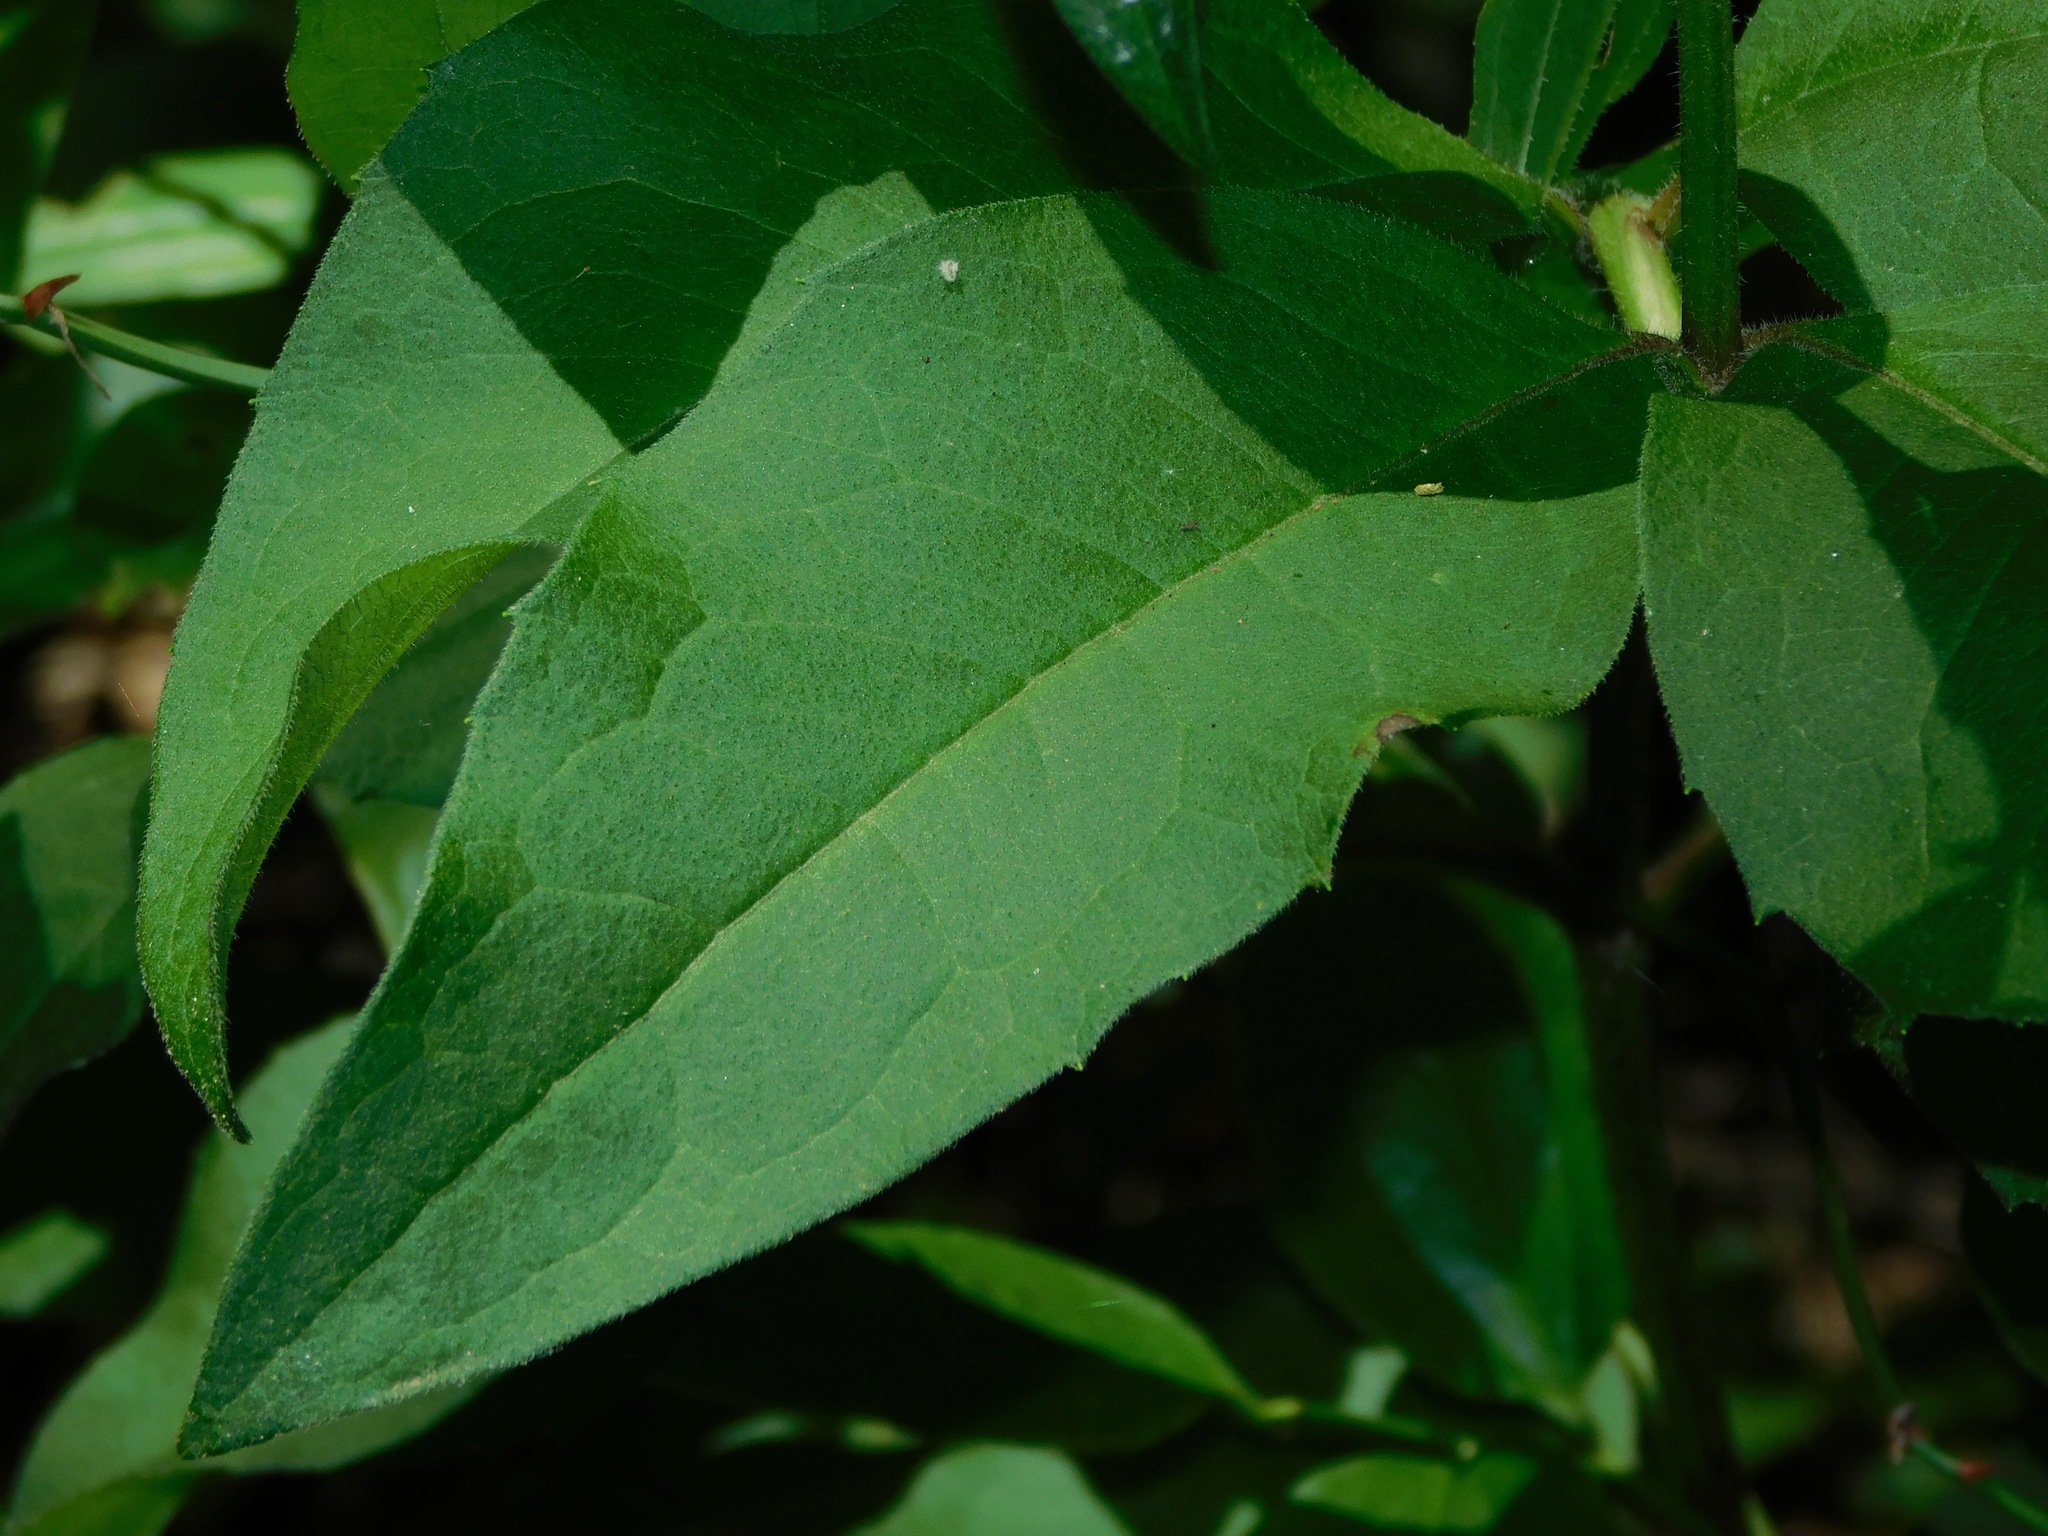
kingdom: Plantae
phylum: Tracheophyta
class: Magnoliopsida
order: Asterales
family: Asteraceae
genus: Silphium
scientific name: Silphium asteriscus
